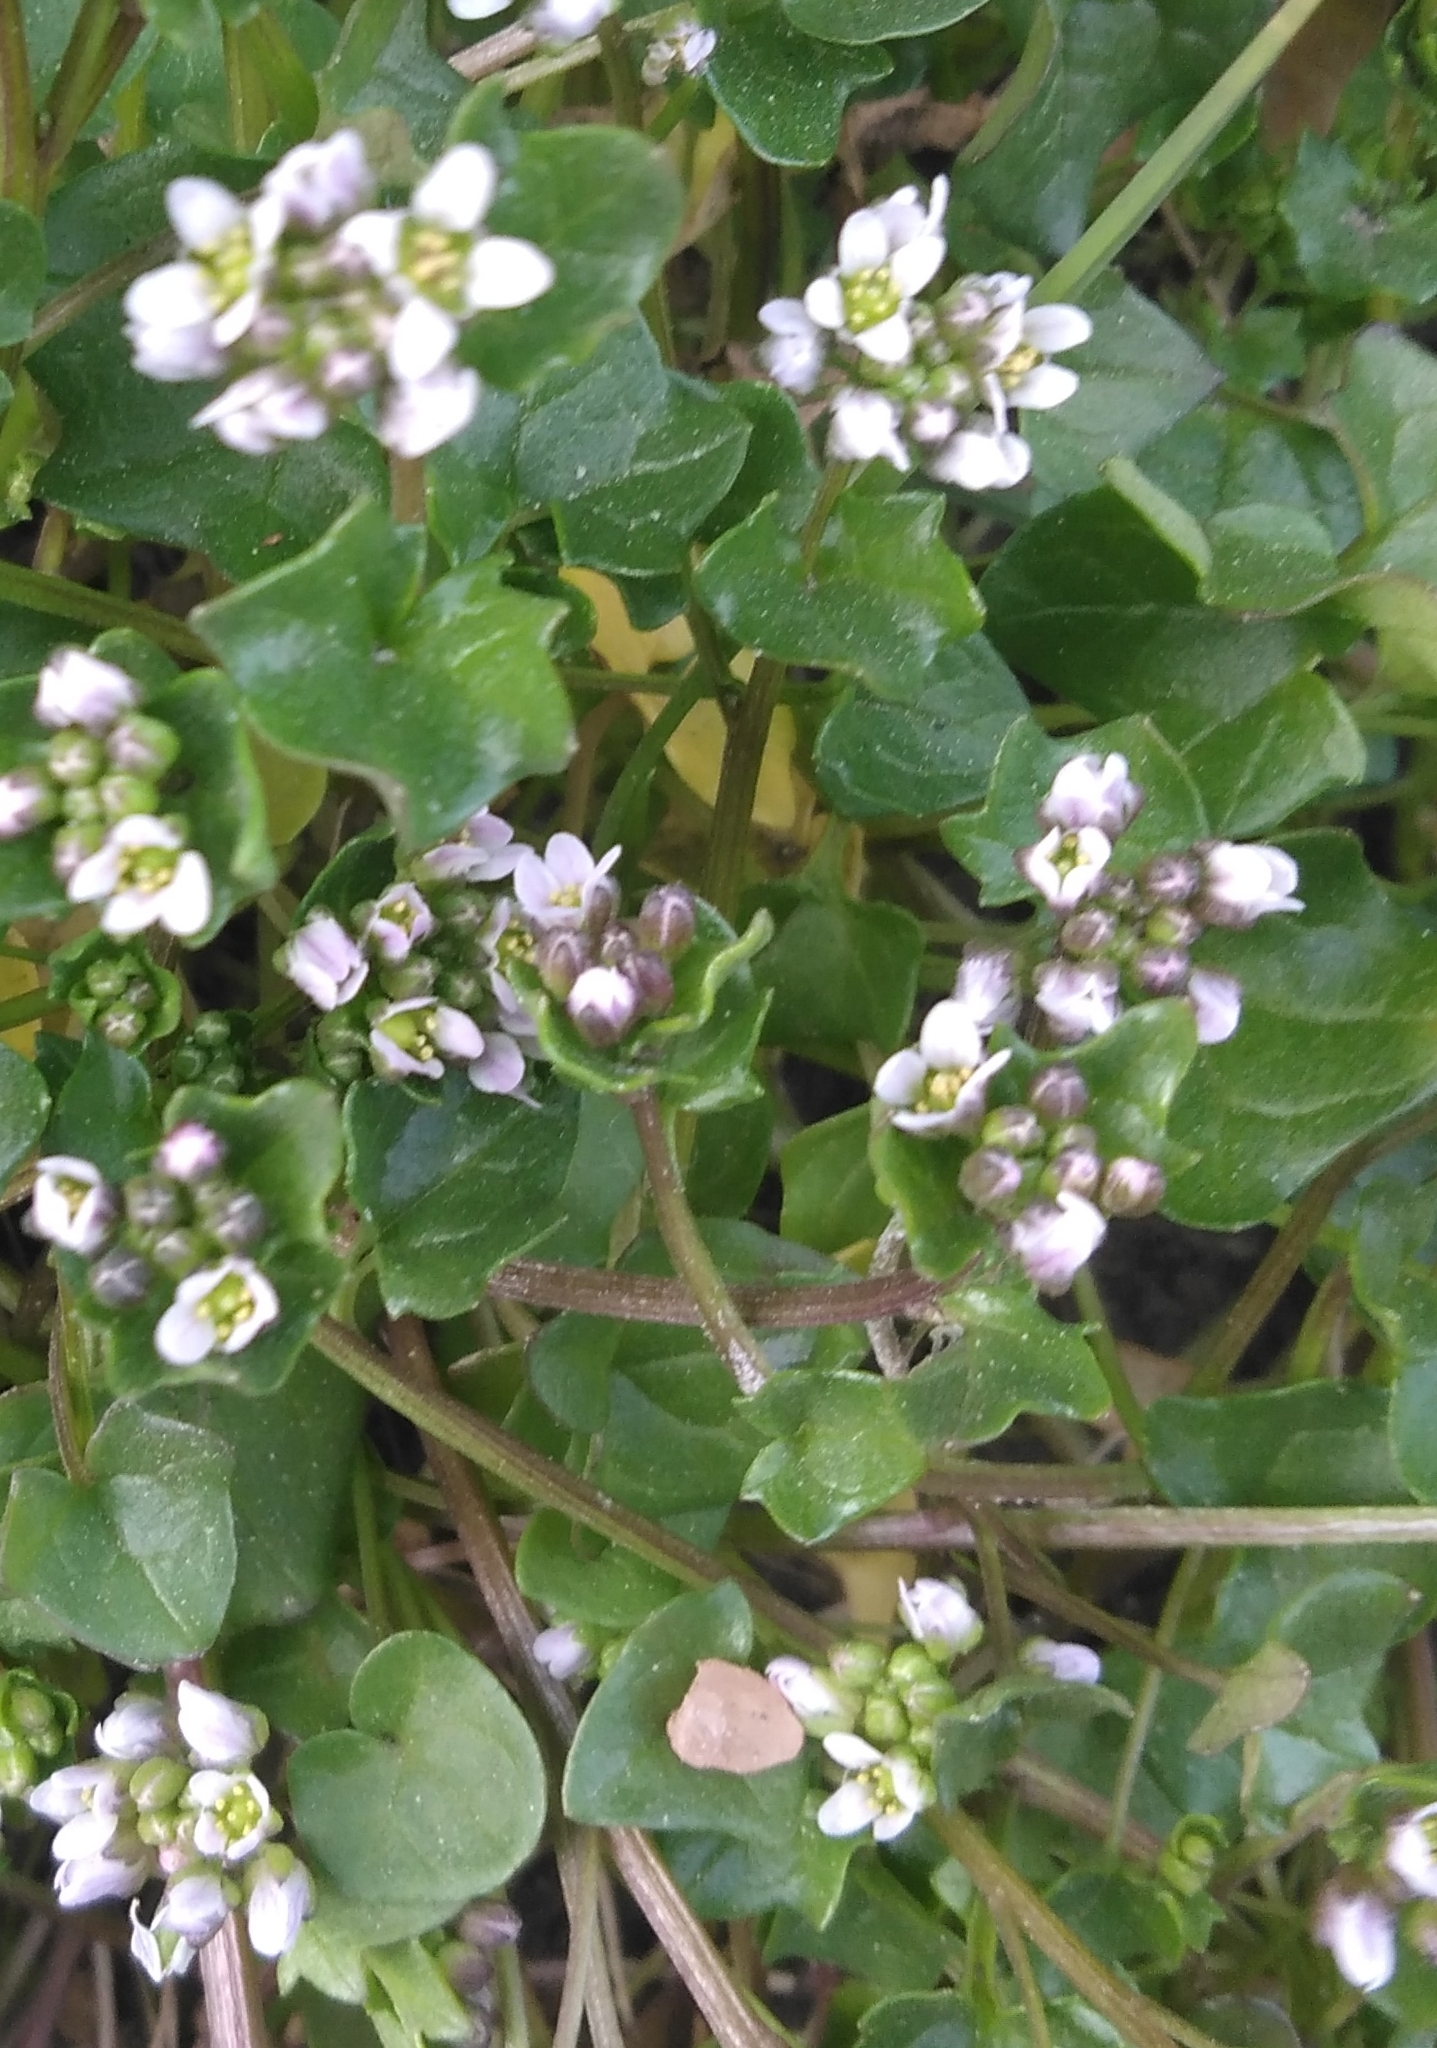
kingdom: Plantae
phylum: Tracheophyta
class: Magnoliopsida
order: Brassicales
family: Brassicaceae
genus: Cochlearia
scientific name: Cochlearia danica
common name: Early scurvygrass
